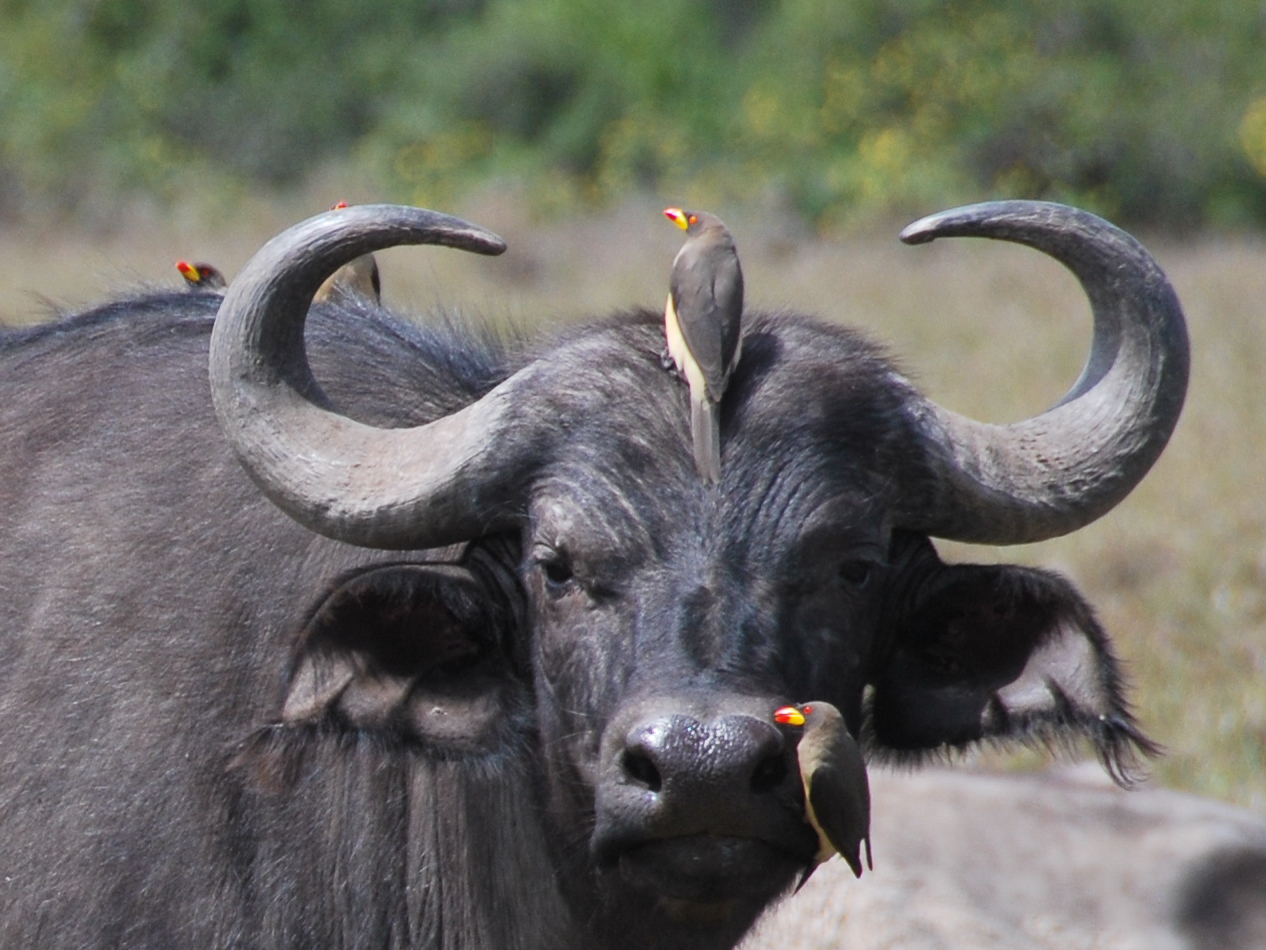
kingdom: Animalia
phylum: Chordata
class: Aves
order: Passeriformes
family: Buphagidae
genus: Buphagus
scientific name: Buphagus africanus
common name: Yellow-billed oxpecker
